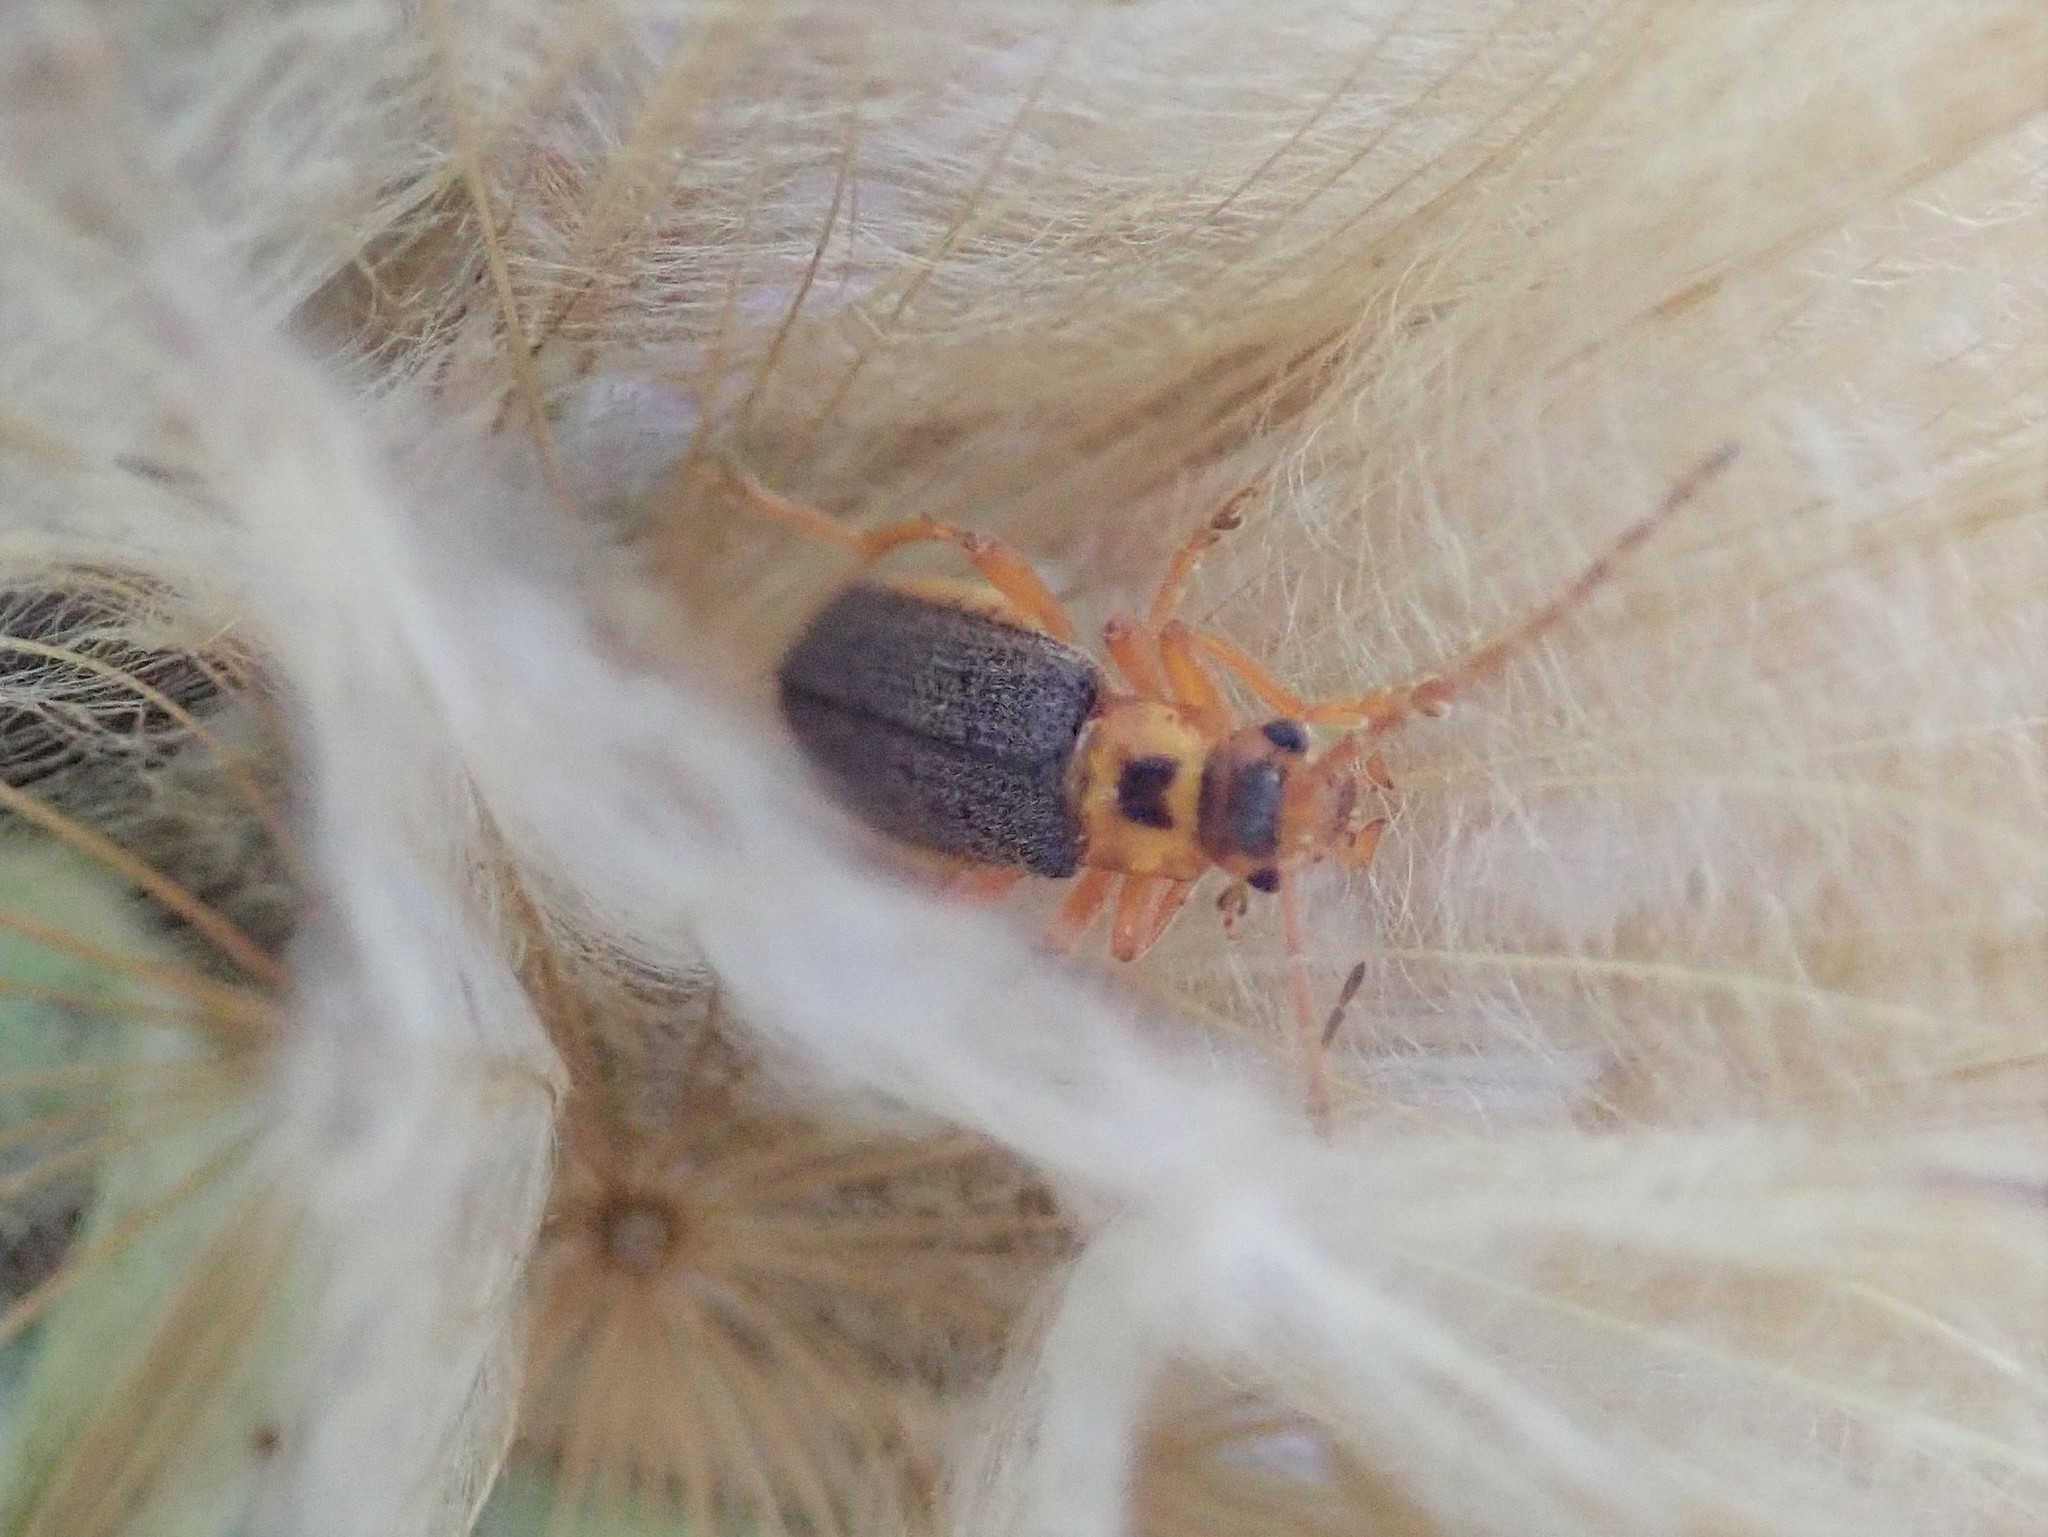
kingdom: Animalia
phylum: Arthropoda
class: Insecta
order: Coleoptera
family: Cantharidae
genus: Cultellunguis
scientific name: Cultellunguis americanus
